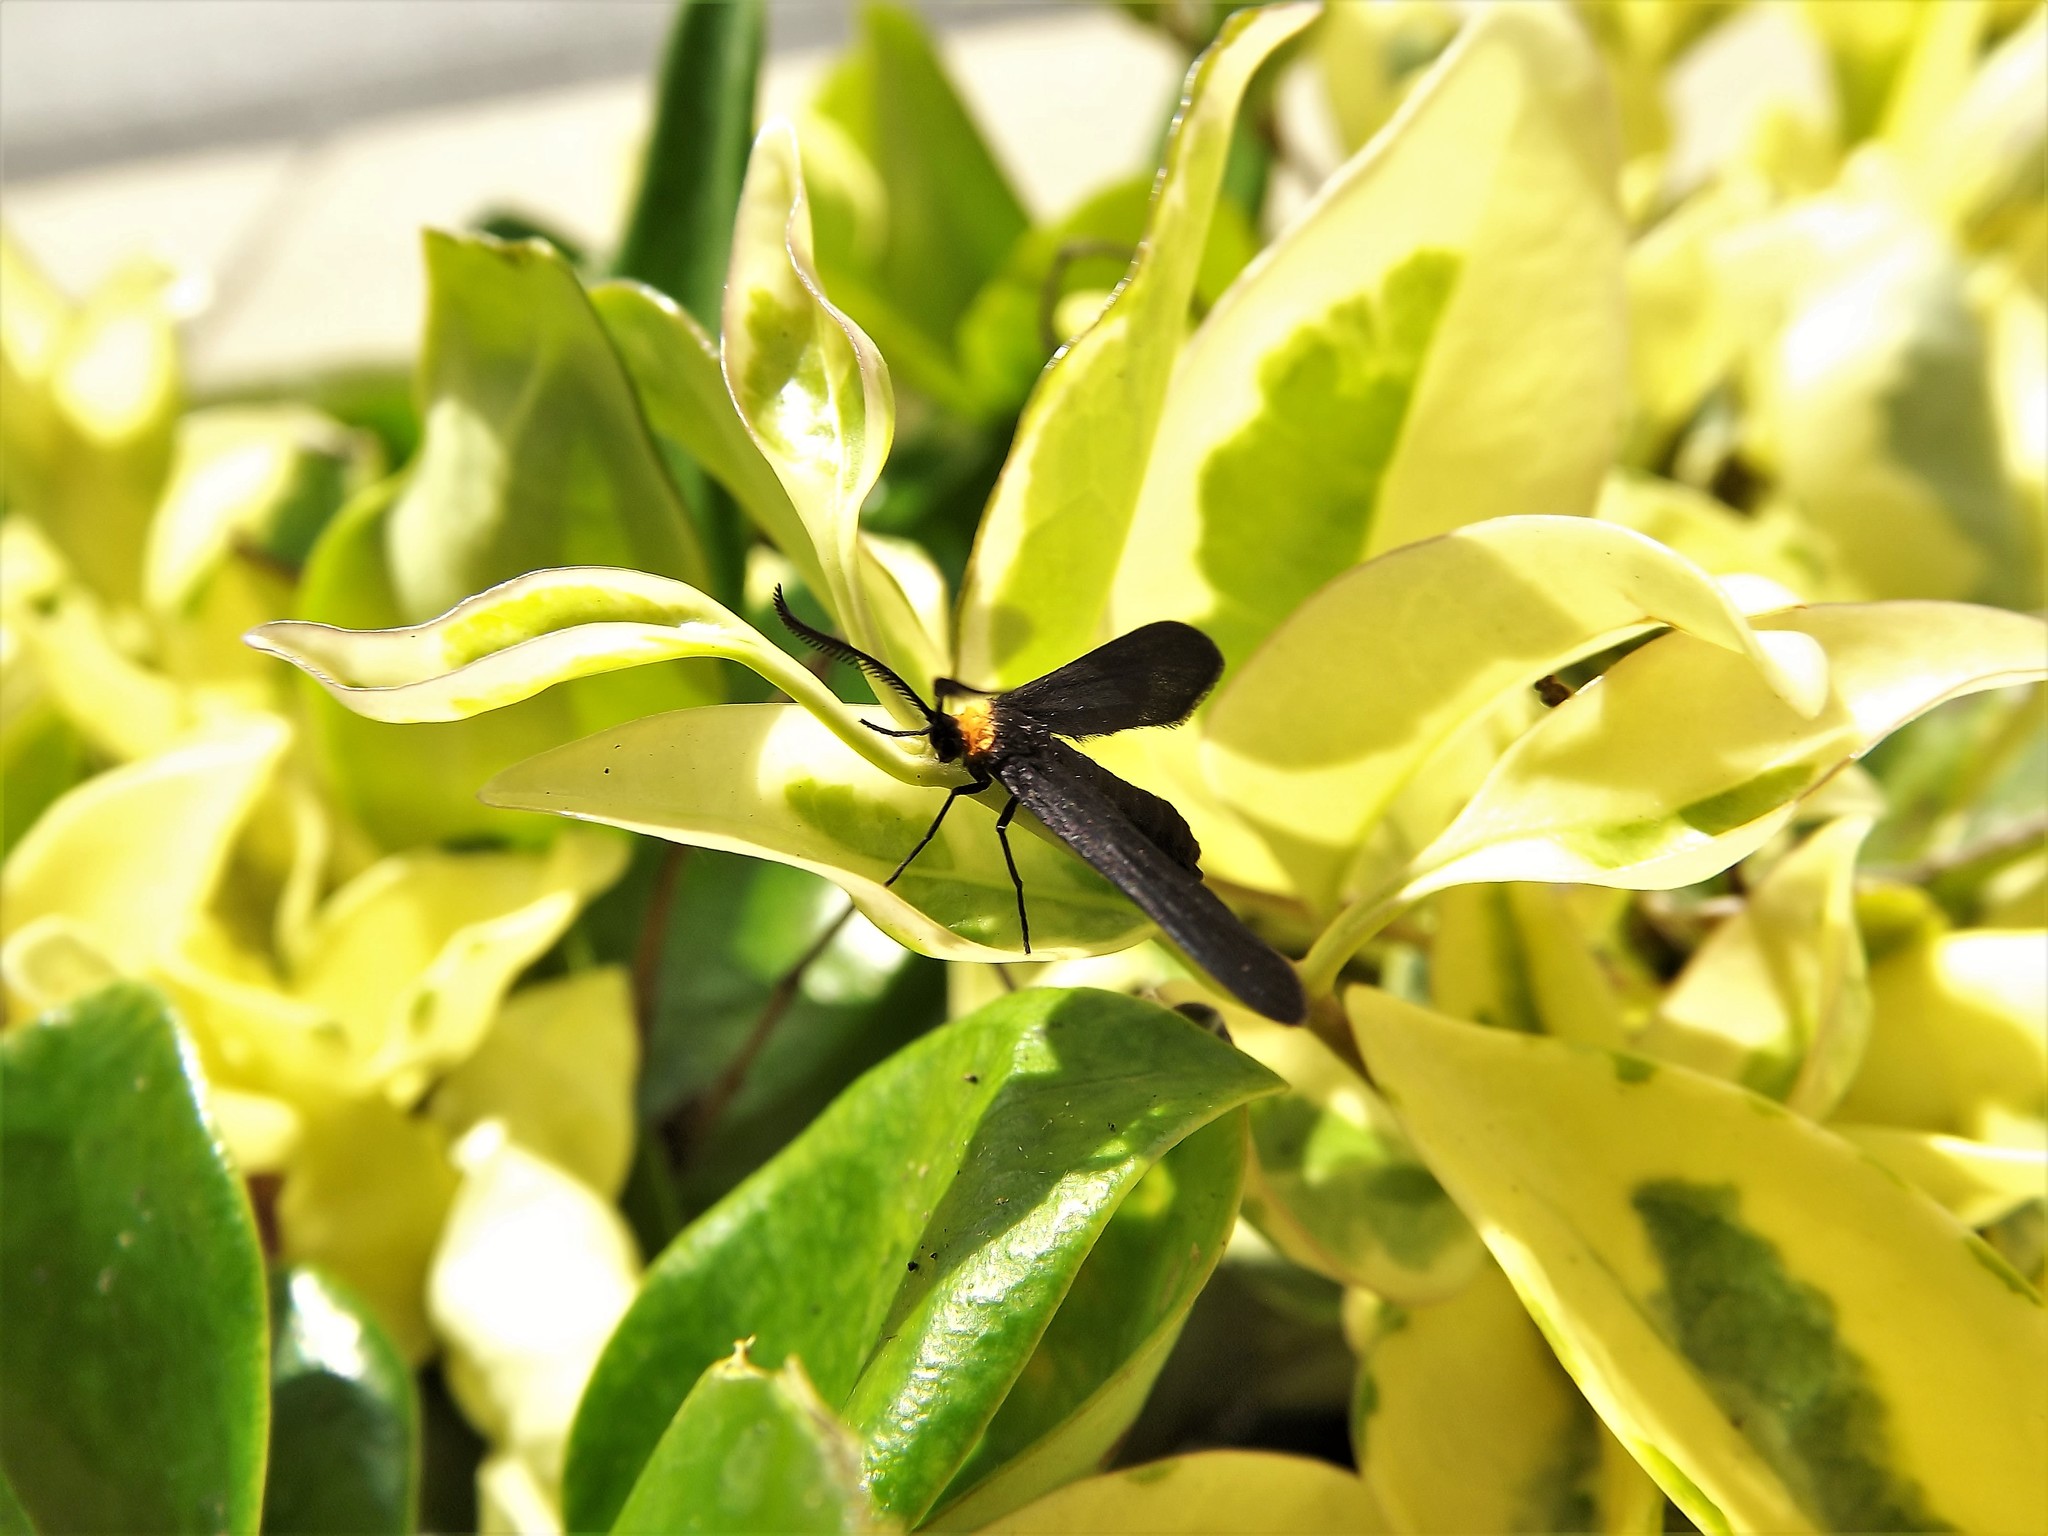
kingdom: Animalia
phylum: Arthropoda
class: Insecta
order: Lepidoptera
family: Zygaenidae
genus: Harrisina
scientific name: Harrisina americana
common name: Grapeleaf skeletonizer moth
